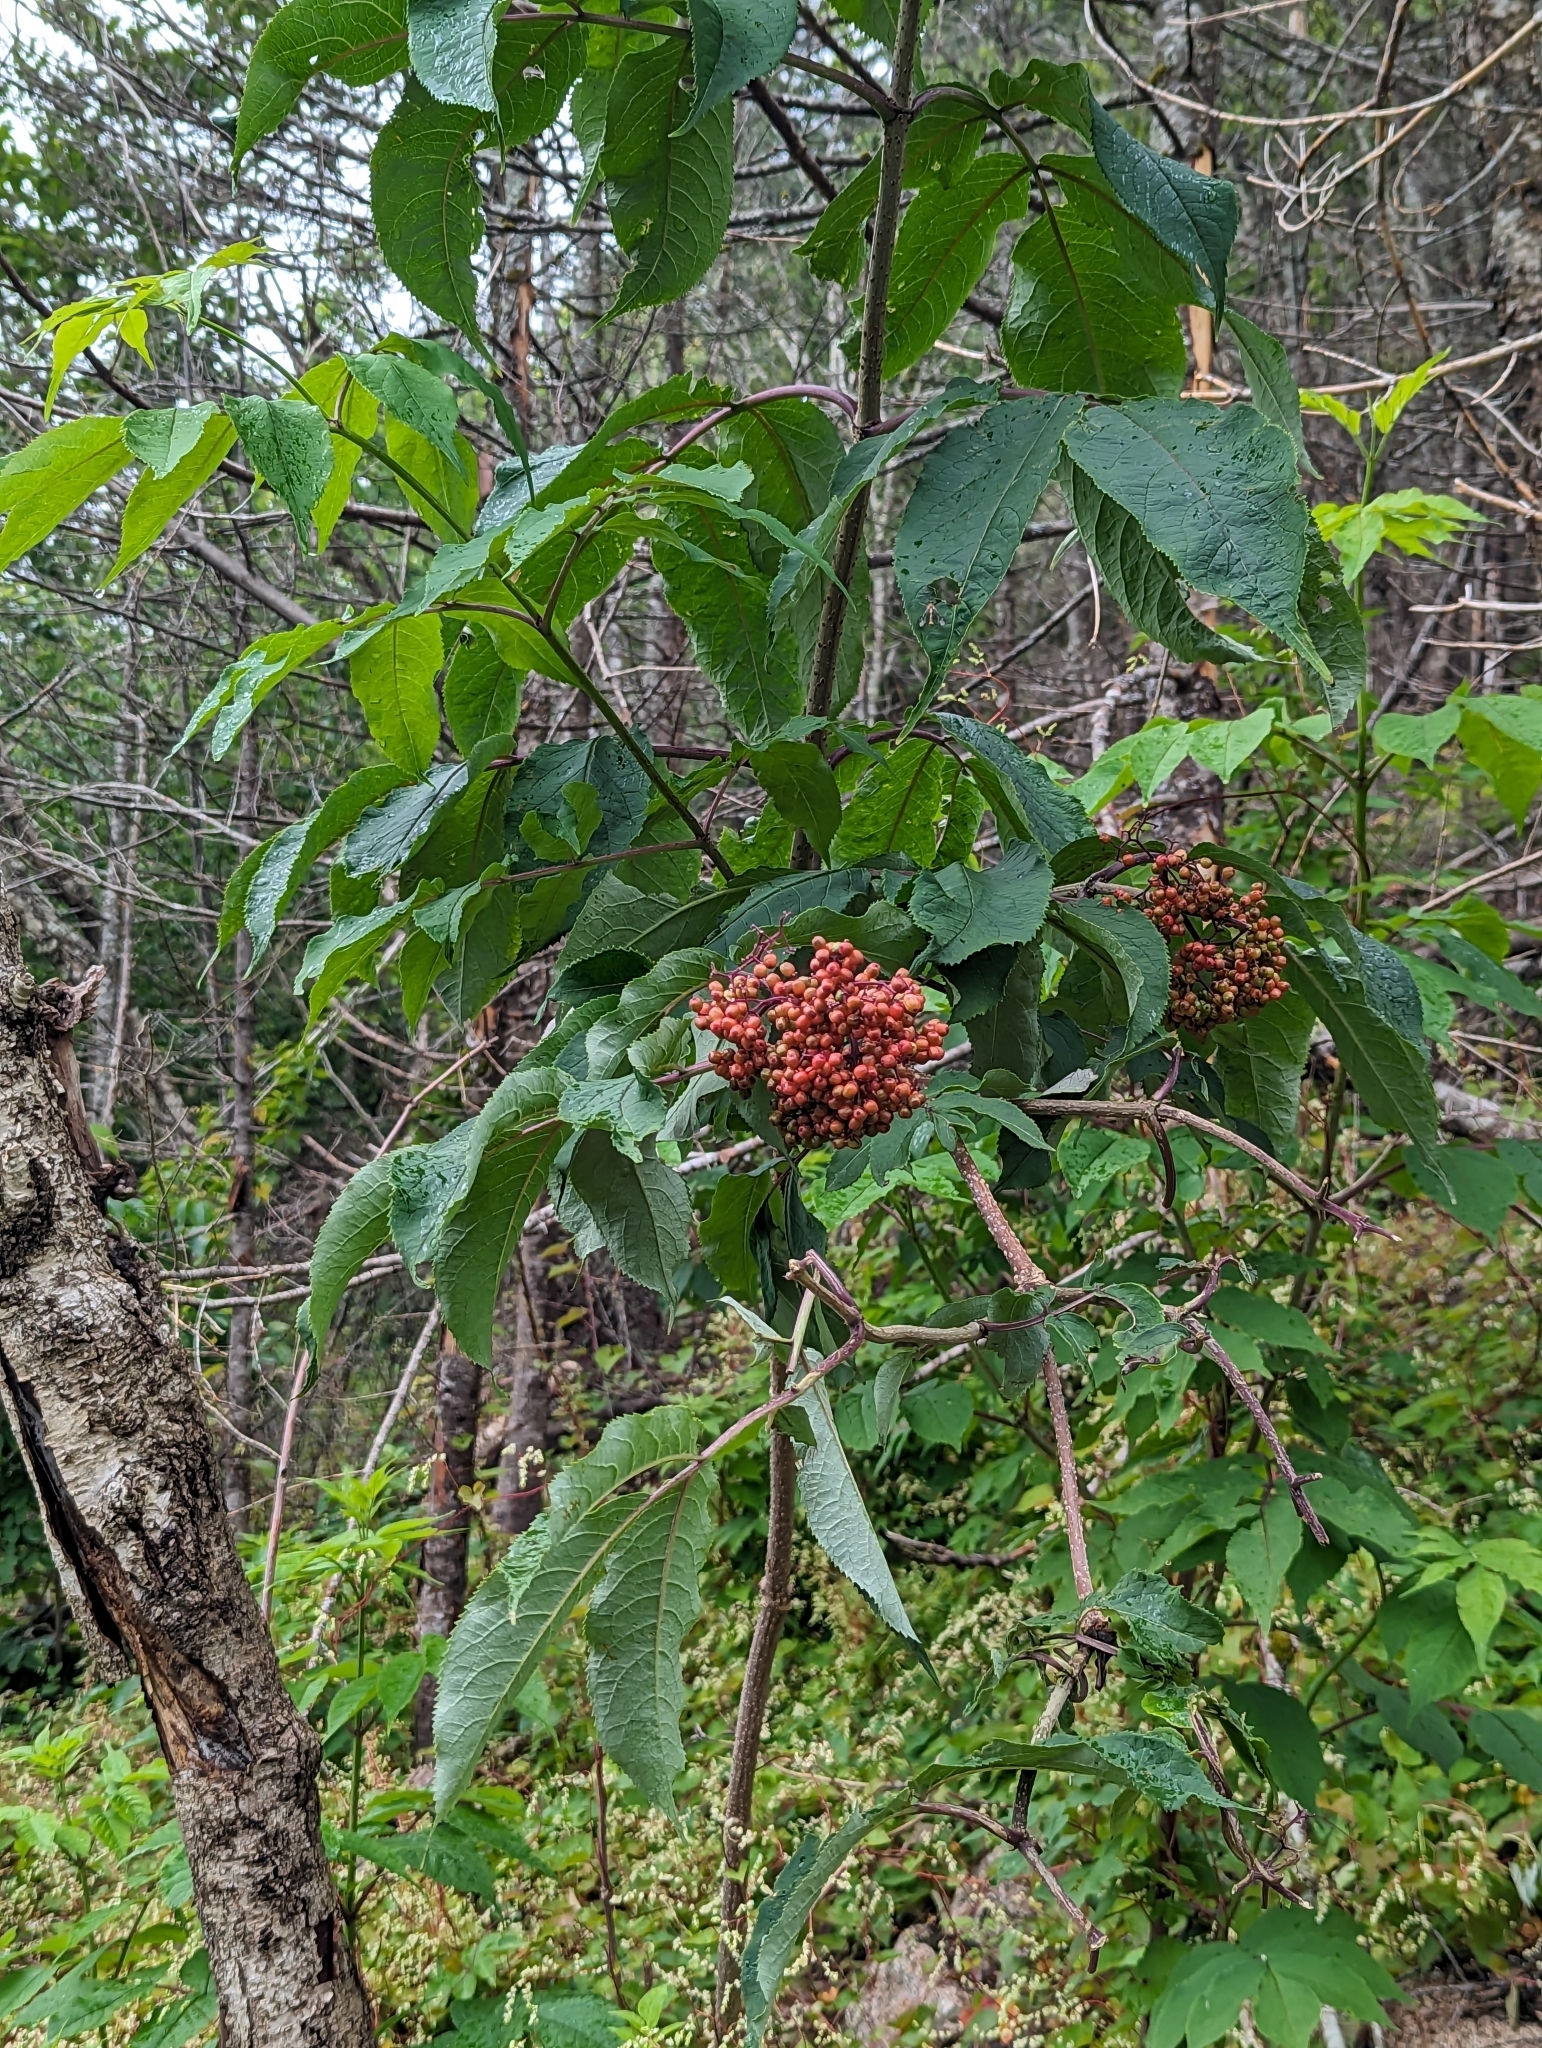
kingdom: Plantae
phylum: Tracheophyta
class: Magnoliopsida
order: Dipsacales
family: Viburnaceae
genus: Sambucus
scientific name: Sambucus racemosa
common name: Red-berried elder
